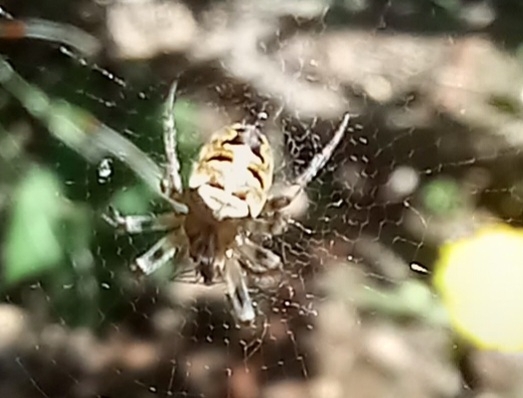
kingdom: Animalia
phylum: Arthropoda
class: Arachnida
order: Araneae
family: Araneidae
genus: Zilla
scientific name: Zilla diodia
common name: Zilla diodia
